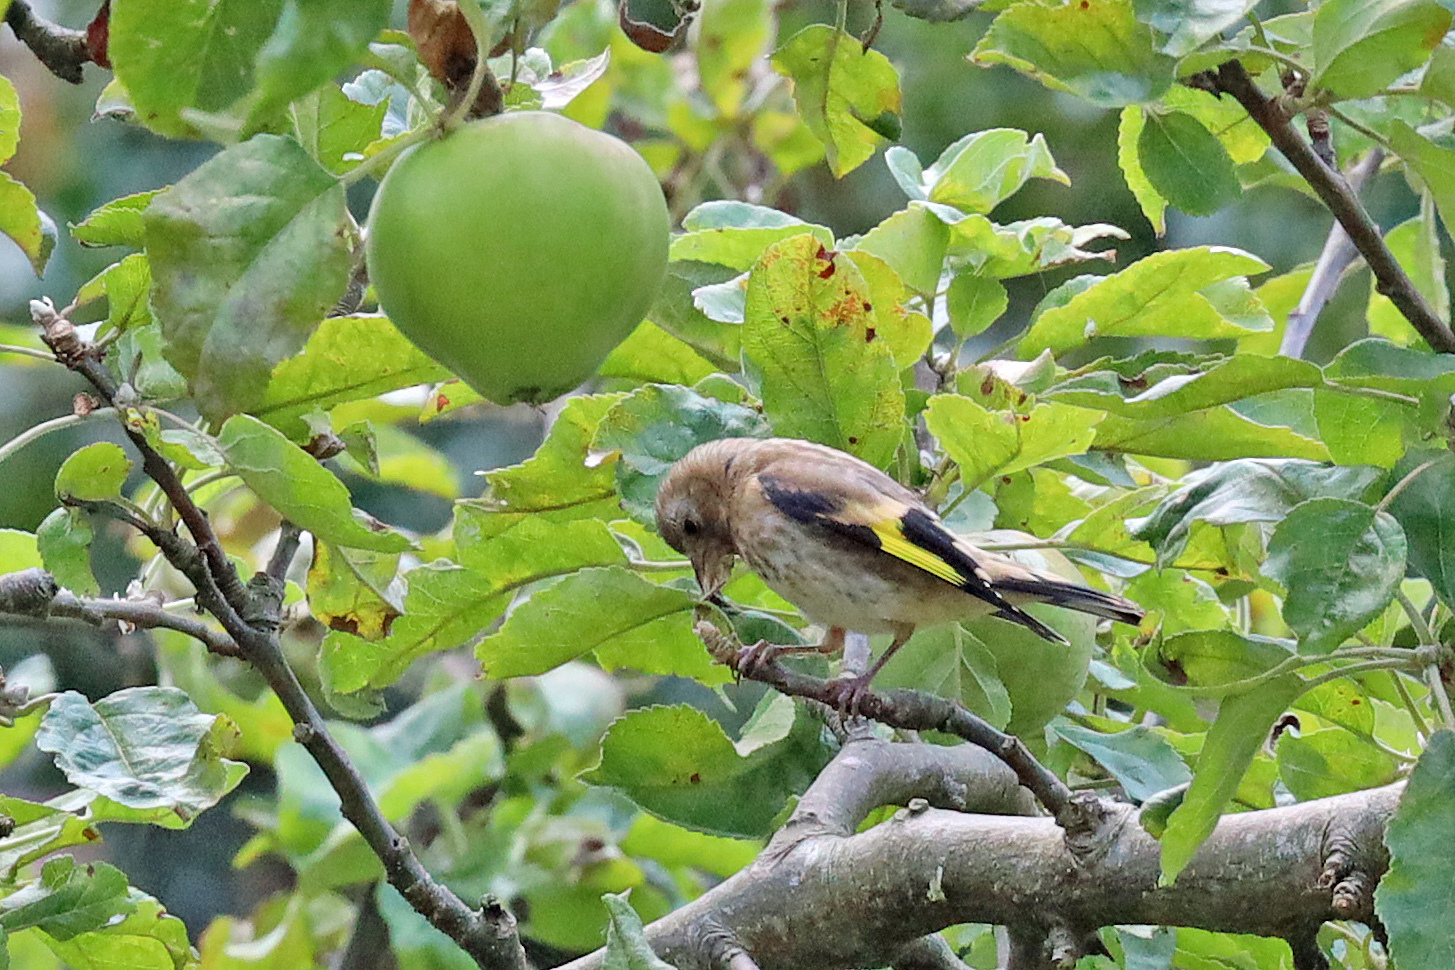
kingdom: Animalia
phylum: Chordata
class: Aves
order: Passeriformes
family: Fringillidae
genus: Carduelis
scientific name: Carduelis carduelis
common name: European goldfinch
